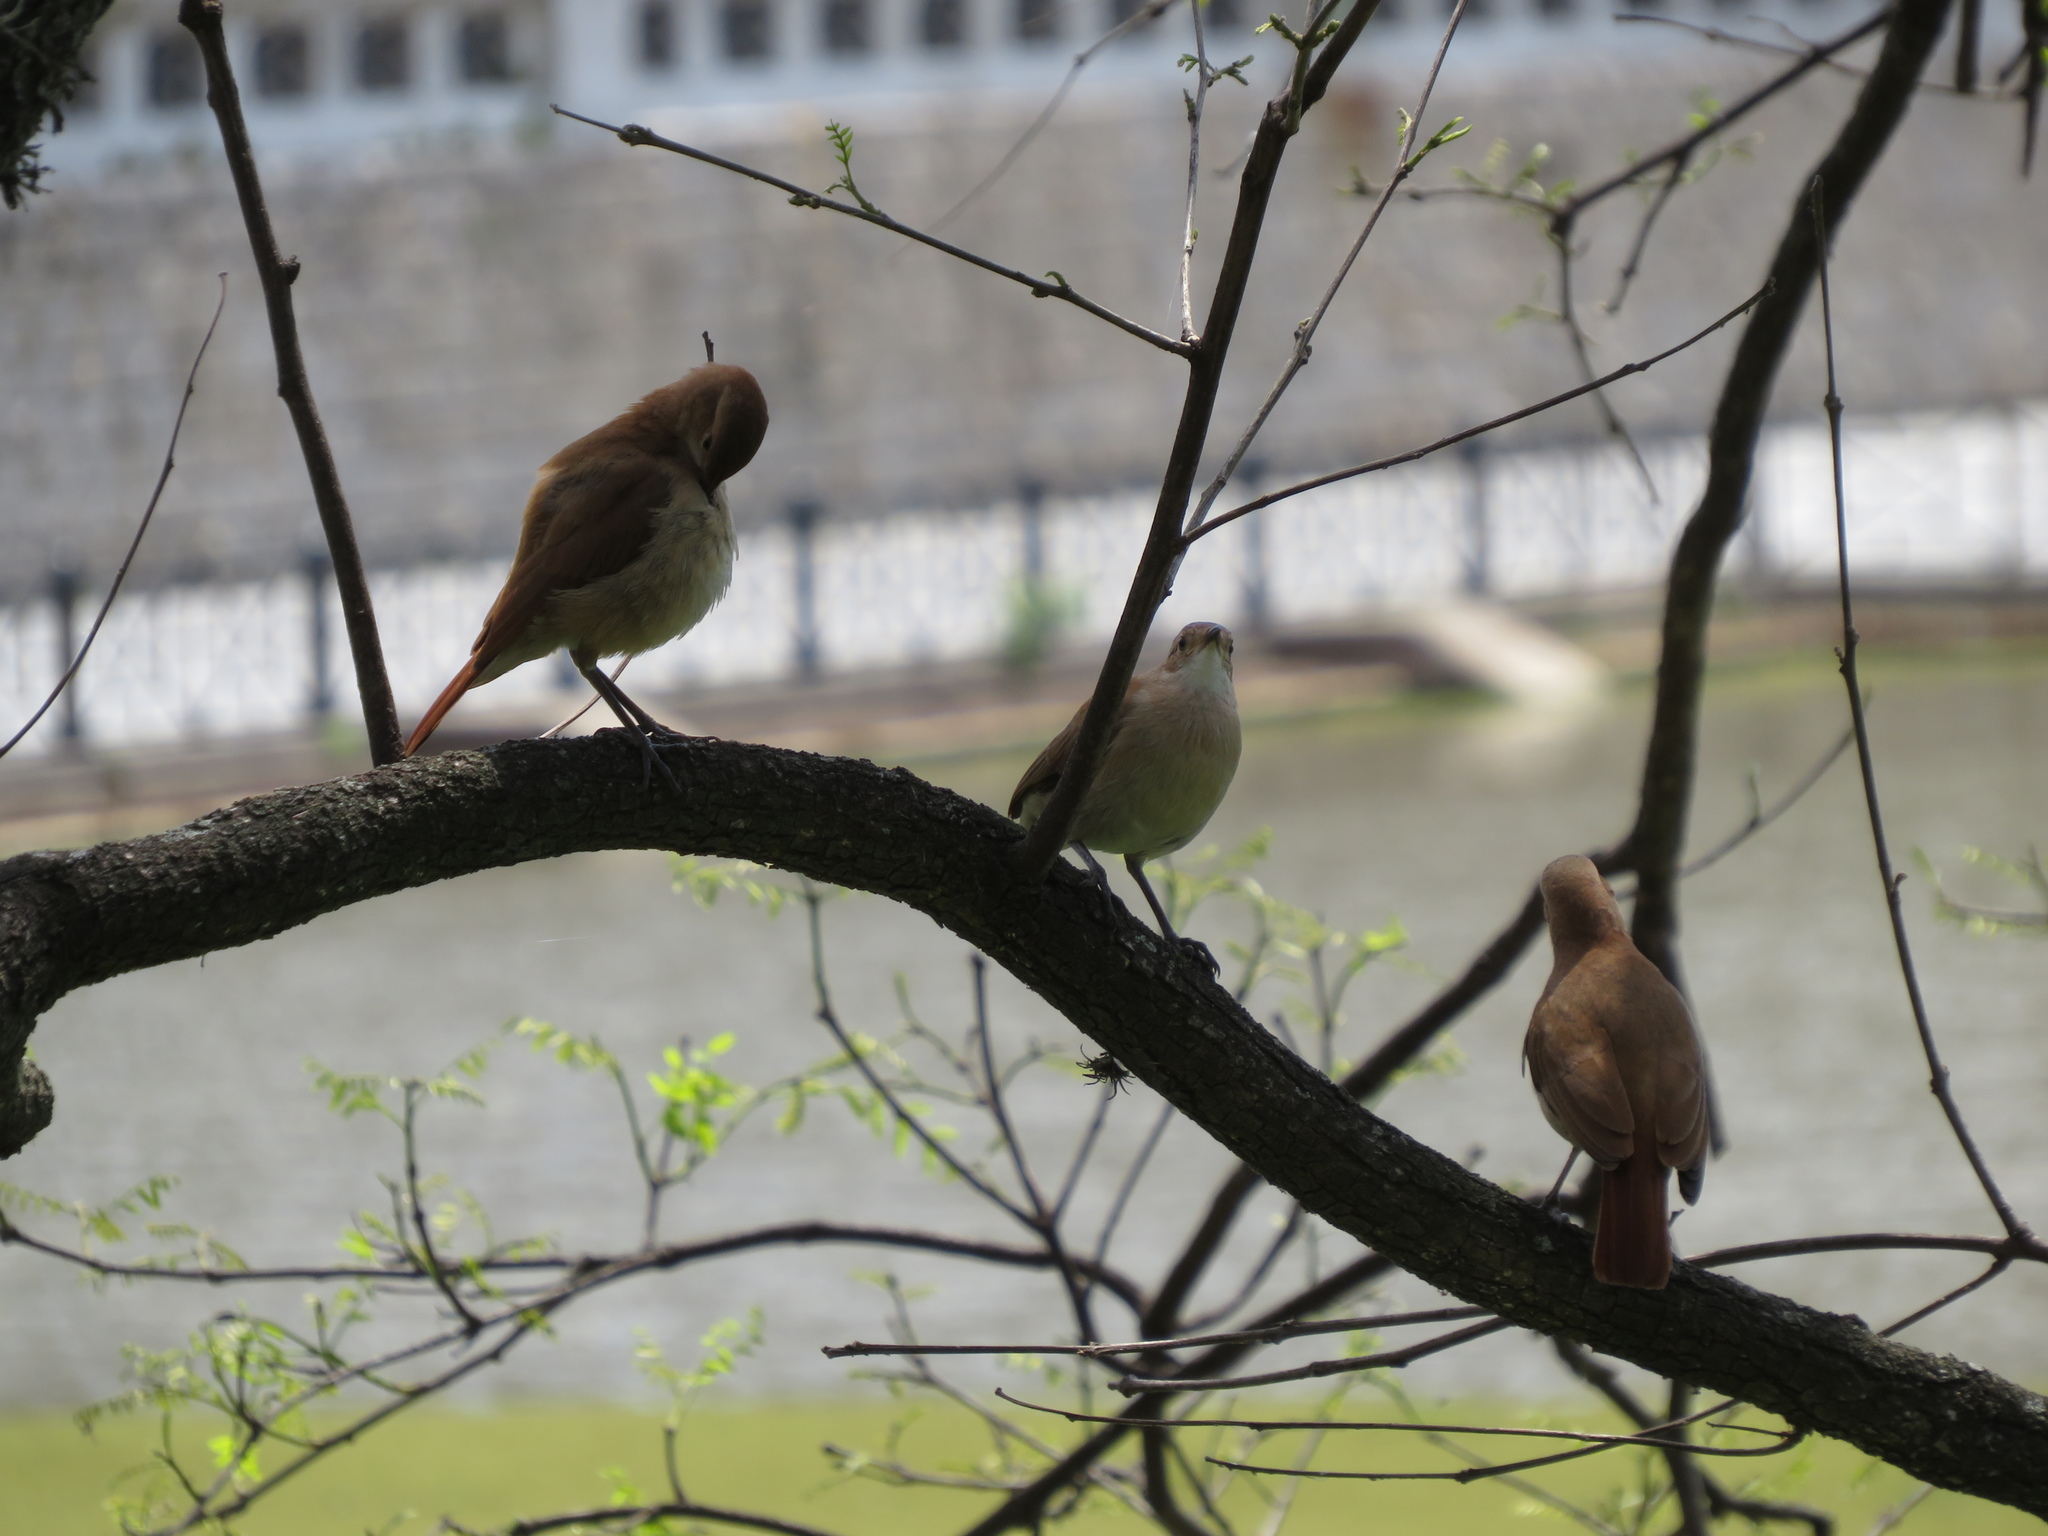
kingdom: Animalia
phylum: Chordata
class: Aves
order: Passeriformes
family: Furnariidae
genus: Furnarius
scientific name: Furnarius rufus
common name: Rufous hornero
